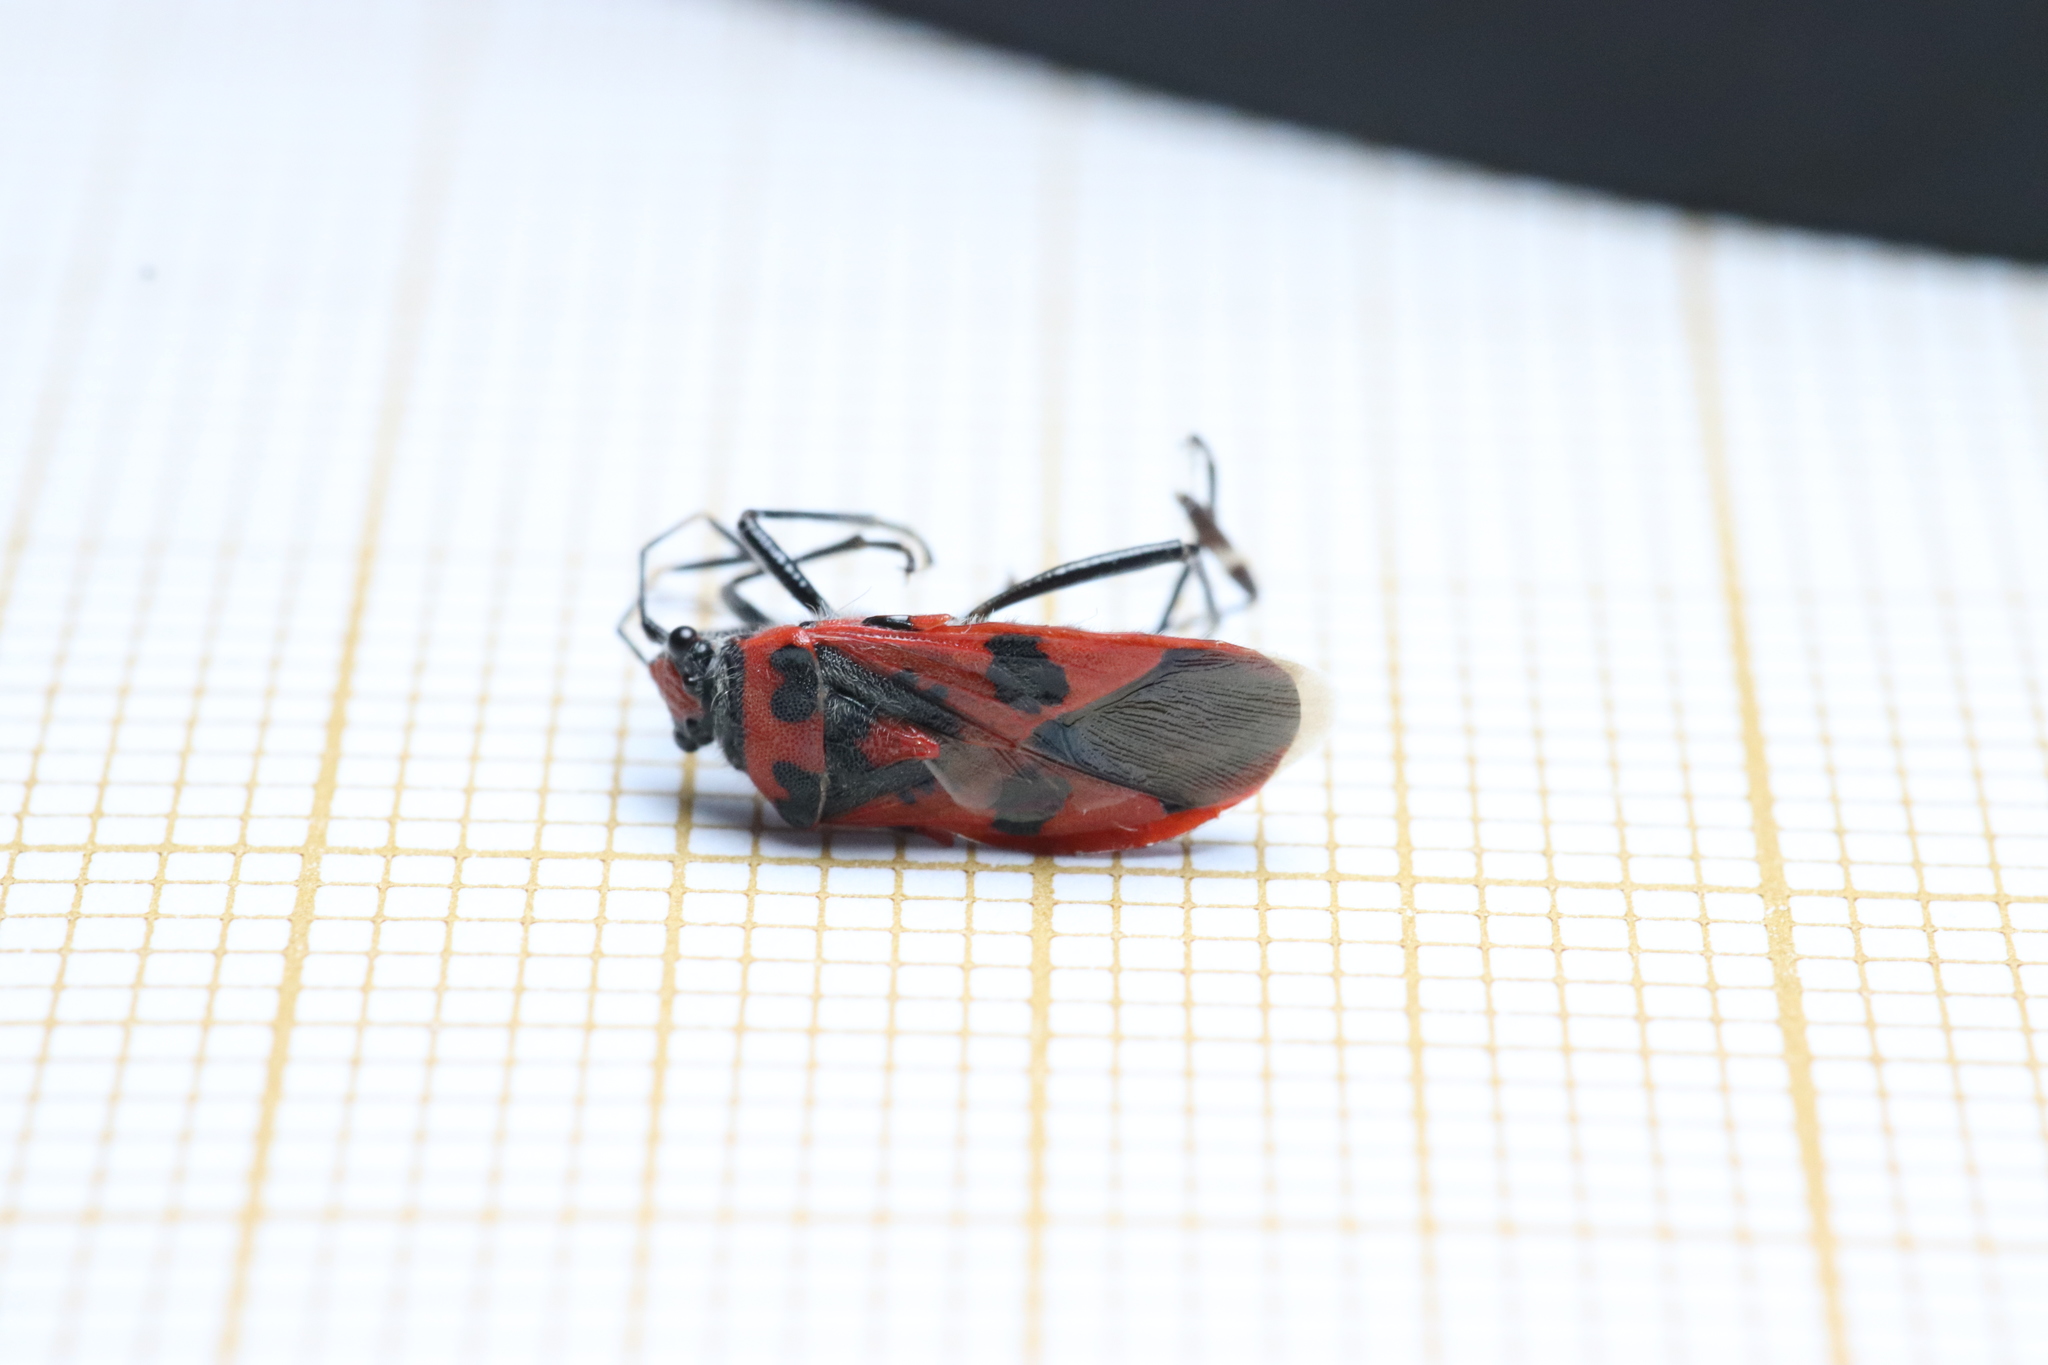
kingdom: Animalia
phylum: Arthropoda
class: Insecta
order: Hemiptera
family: Rhopalidae
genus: Corizus
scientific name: Corizus hyoscyami
